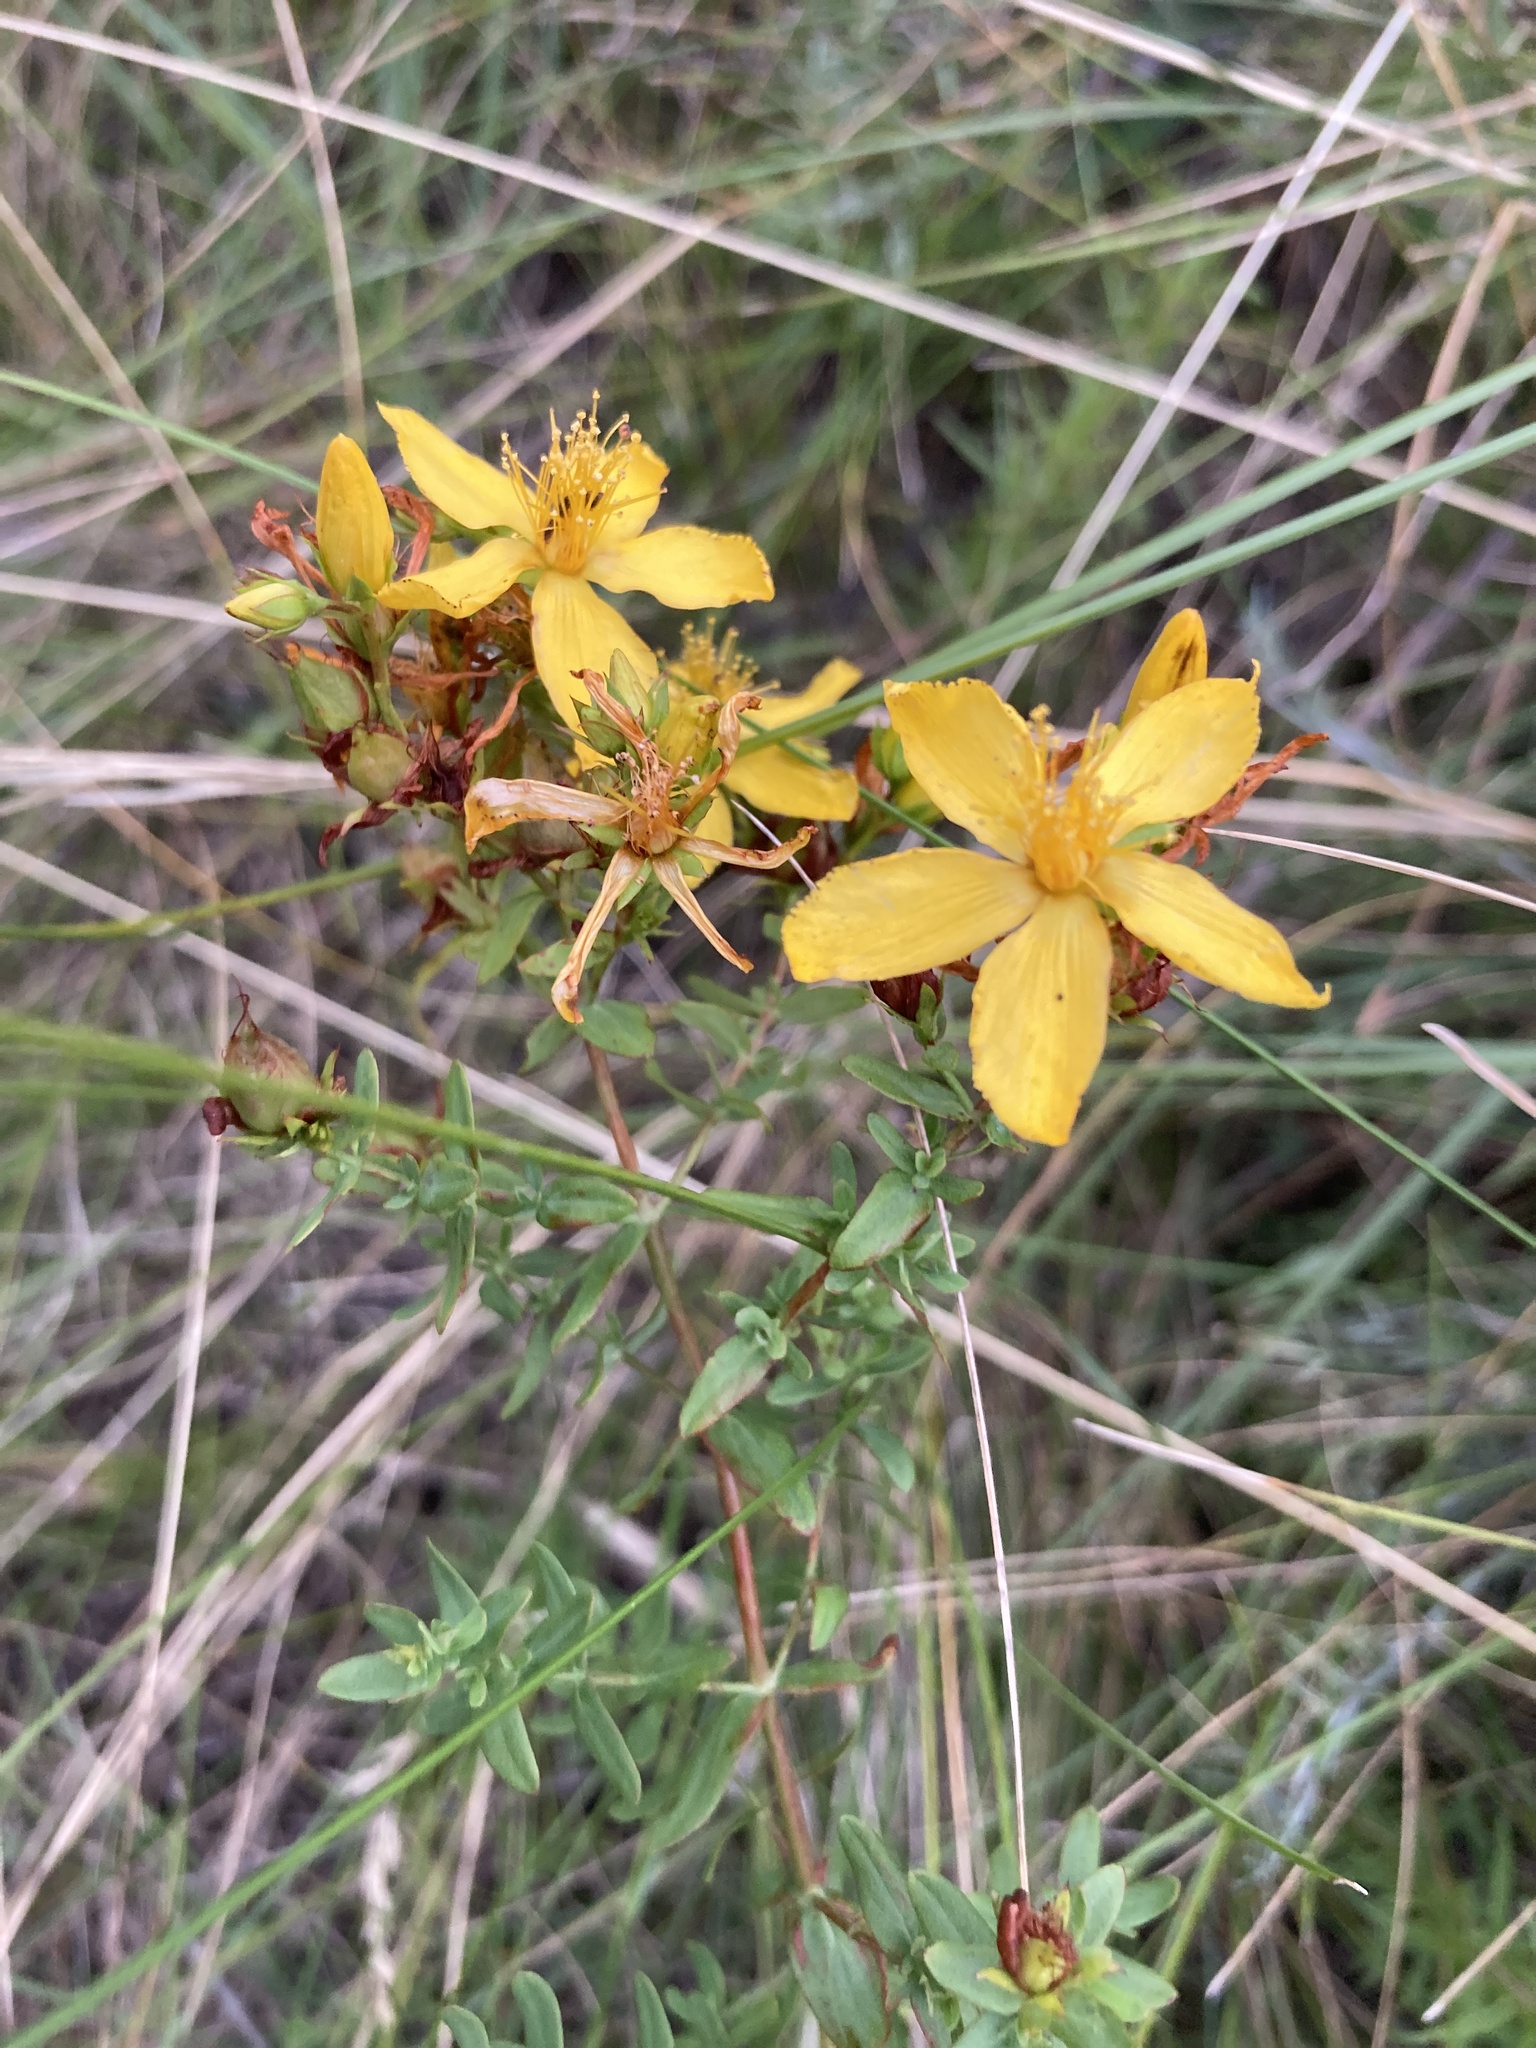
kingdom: Plantae
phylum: Tracheophyta
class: Magnoliopsida
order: Malpighiales
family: Hypericaceae
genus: Hypericum
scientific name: Hypericum perforatum
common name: Common st. johnswort
